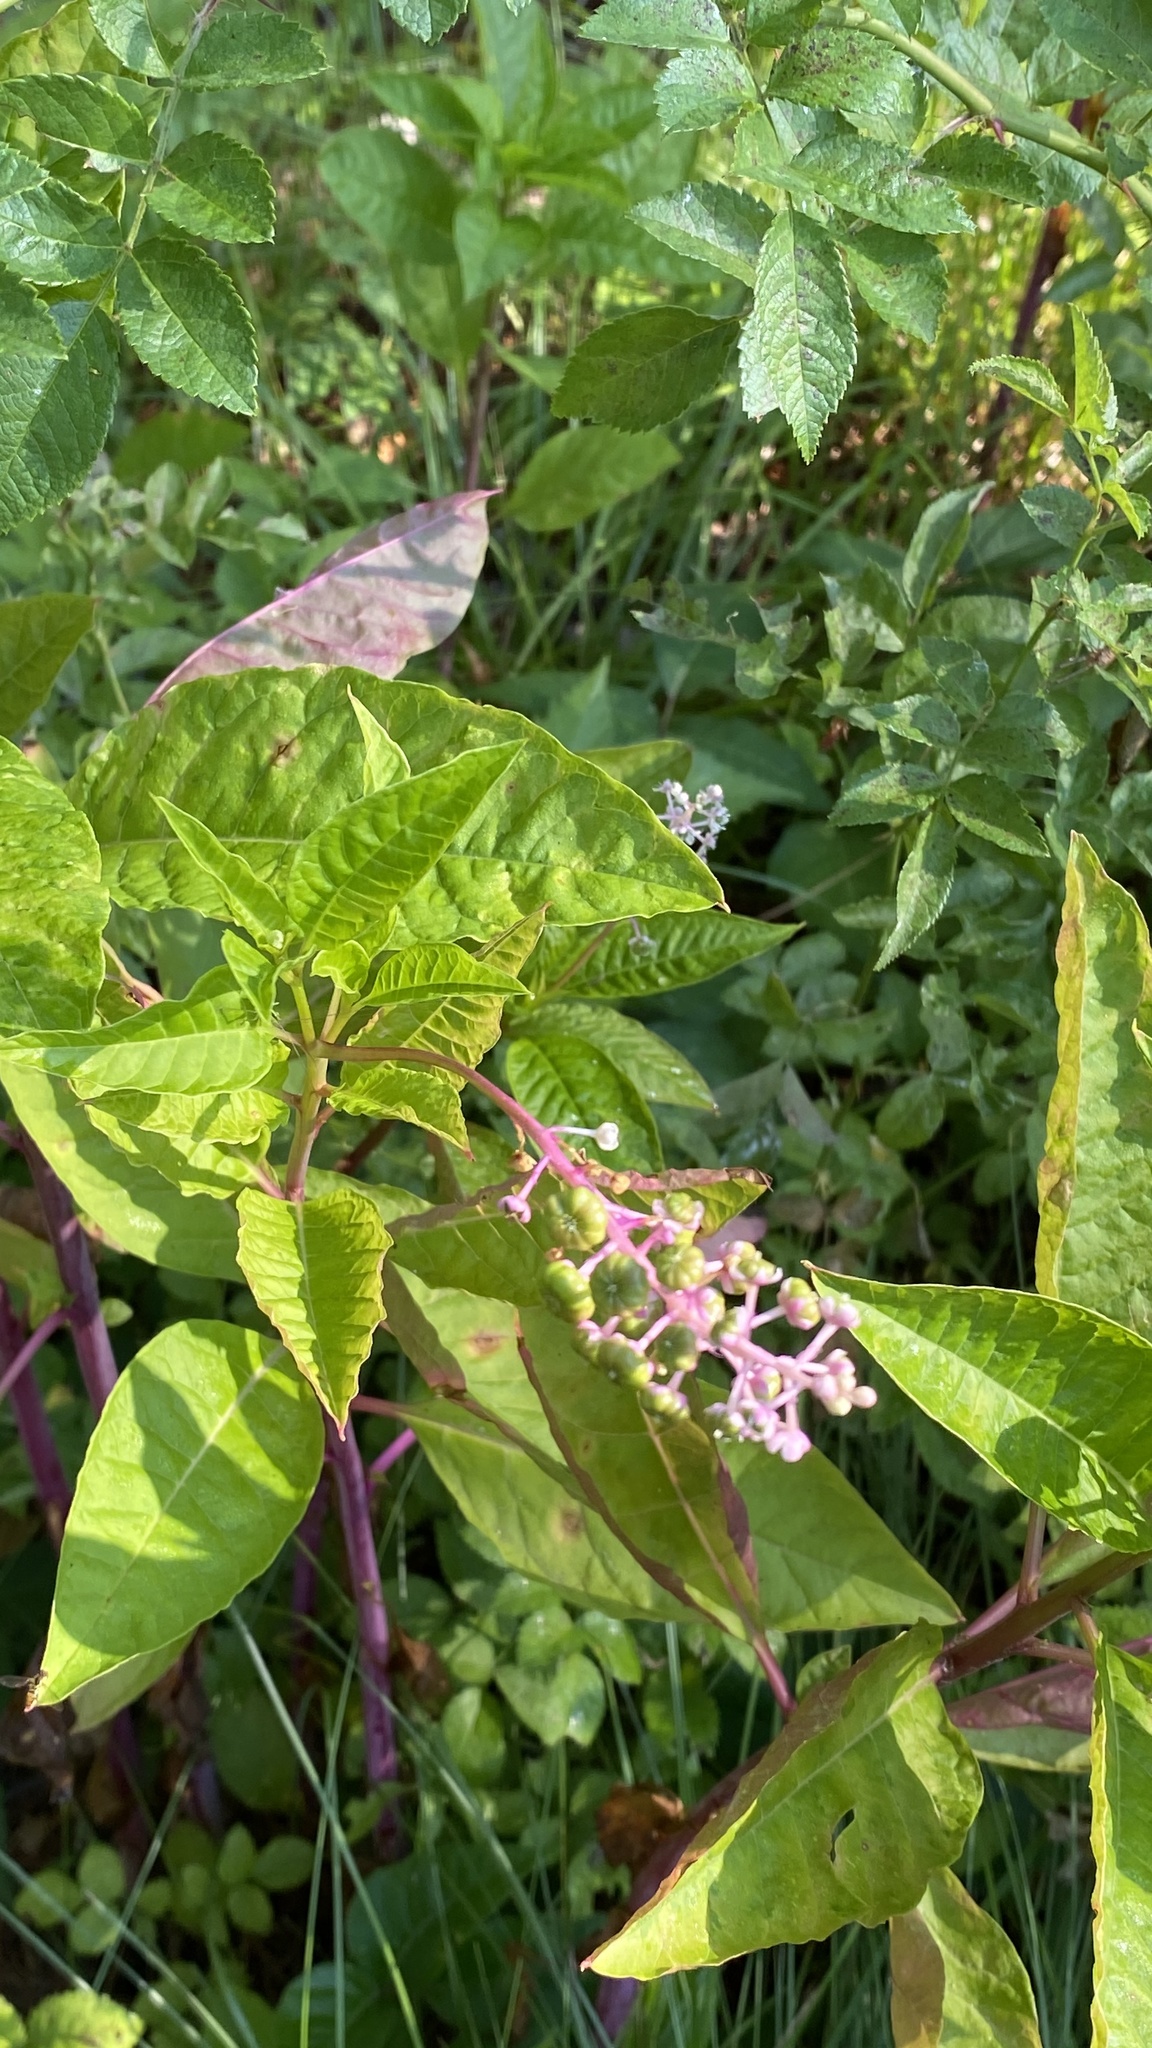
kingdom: Plantae
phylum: Tracheophyta
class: Magnoliopsida
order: Caryophyllales
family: Phytolaccaceae
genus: Phytolacca
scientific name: Phytolacca americana
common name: American pokeweed
